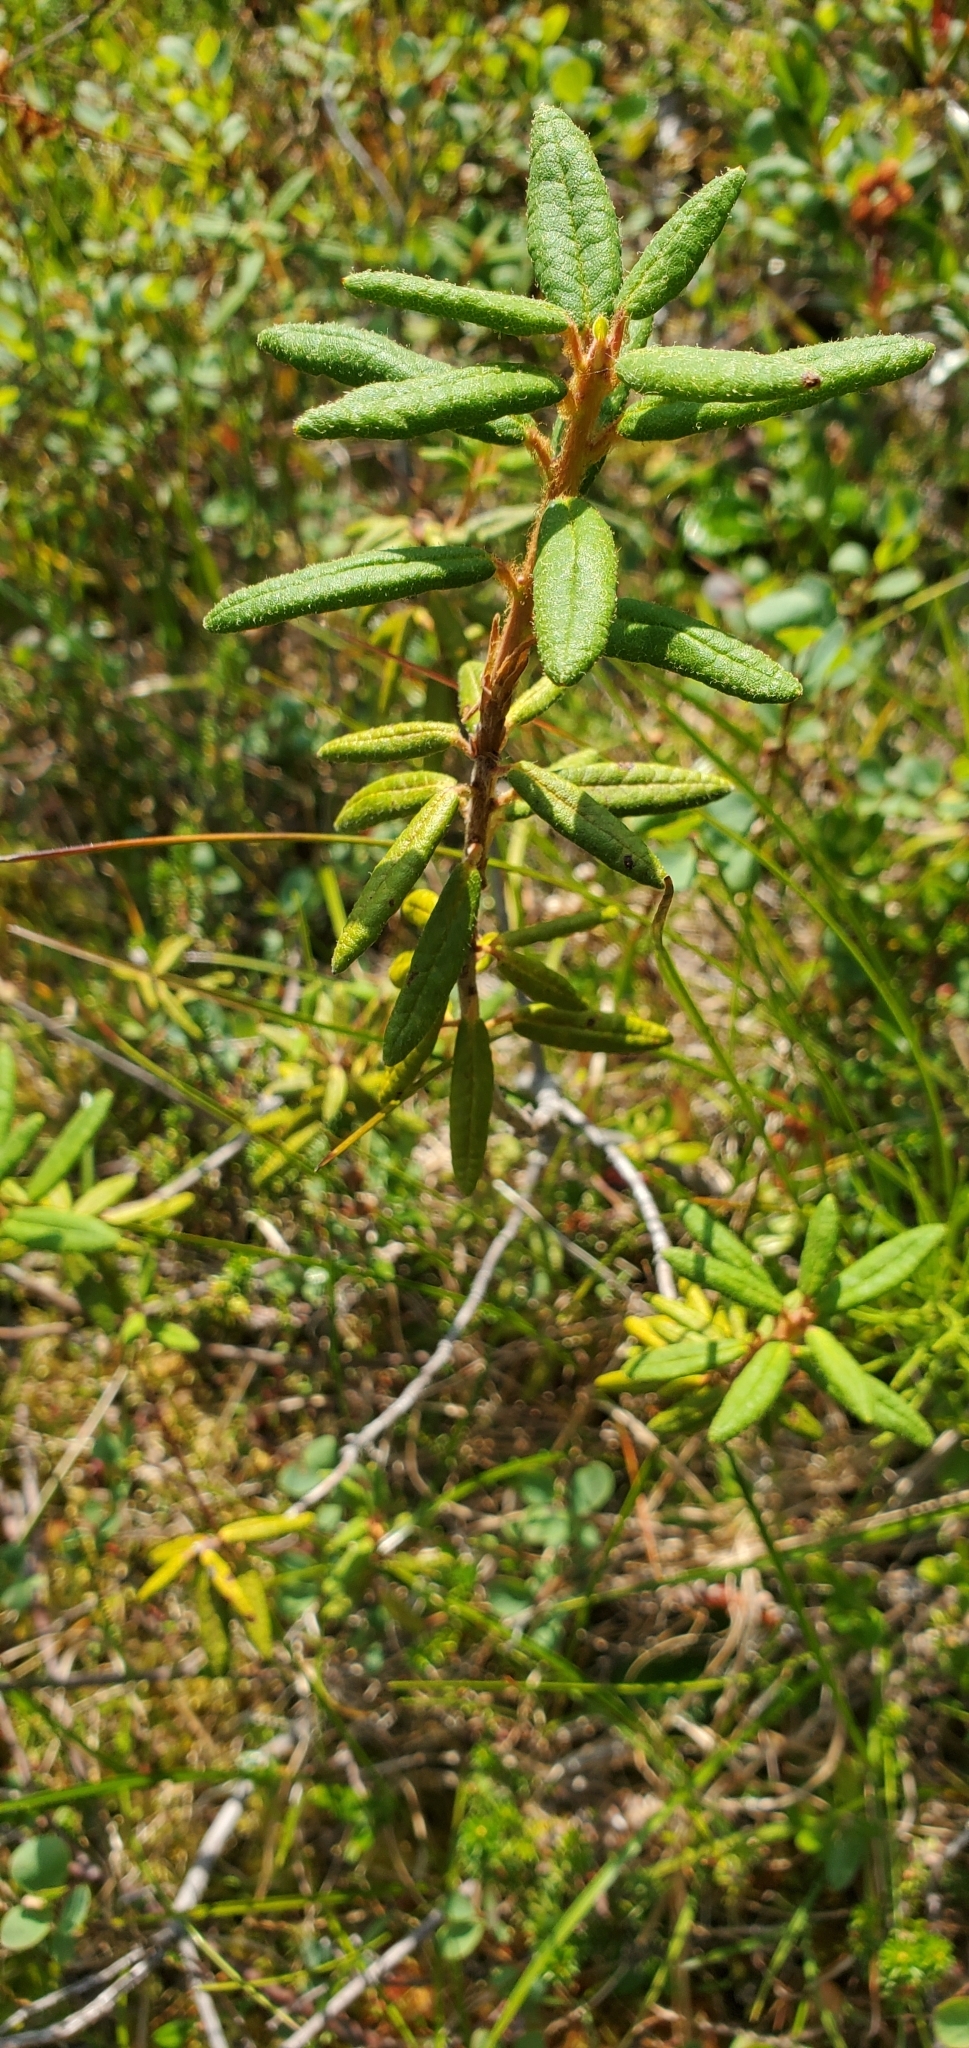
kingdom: Plantae
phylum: Tracheophyta
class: Magnoliopsida
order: Ericales
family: Ericaceae
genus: Rhododendron
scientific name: Rhododendron groenlandicum
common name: Bog labrador tea
